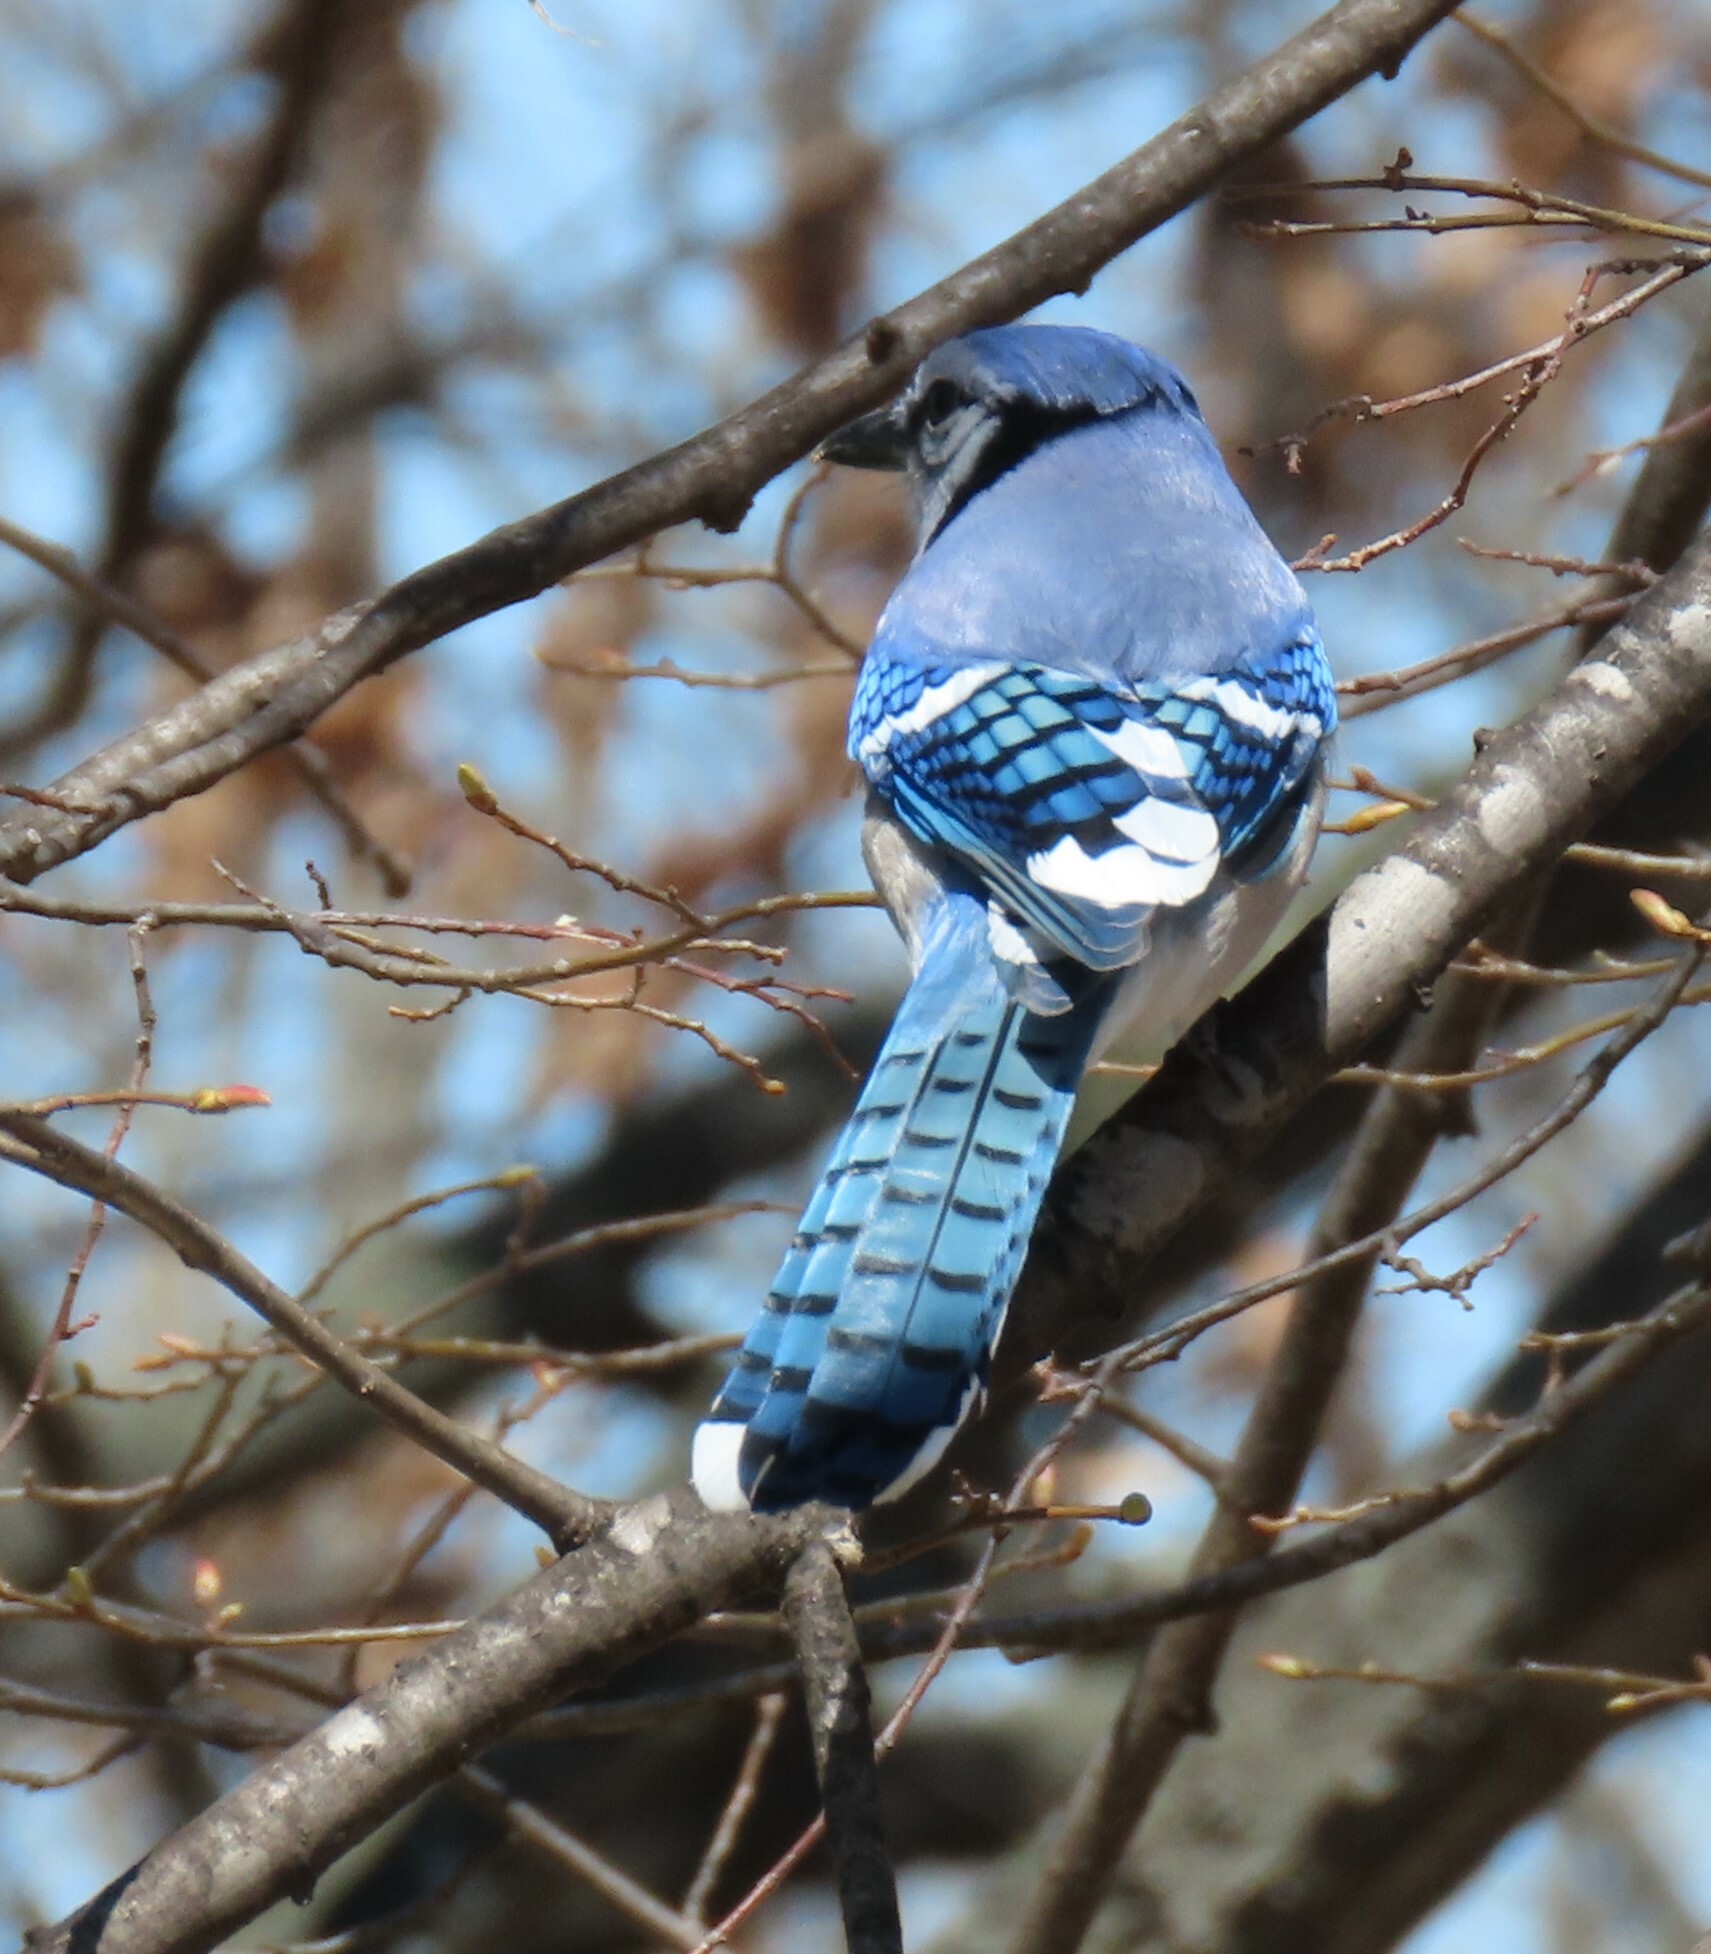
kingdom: Animalia
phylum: Chordata
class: Aves
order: Passeriformes
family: Corvidae
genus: Cyanocitta
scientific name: Cyanocitta cristata
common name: Blue jay
